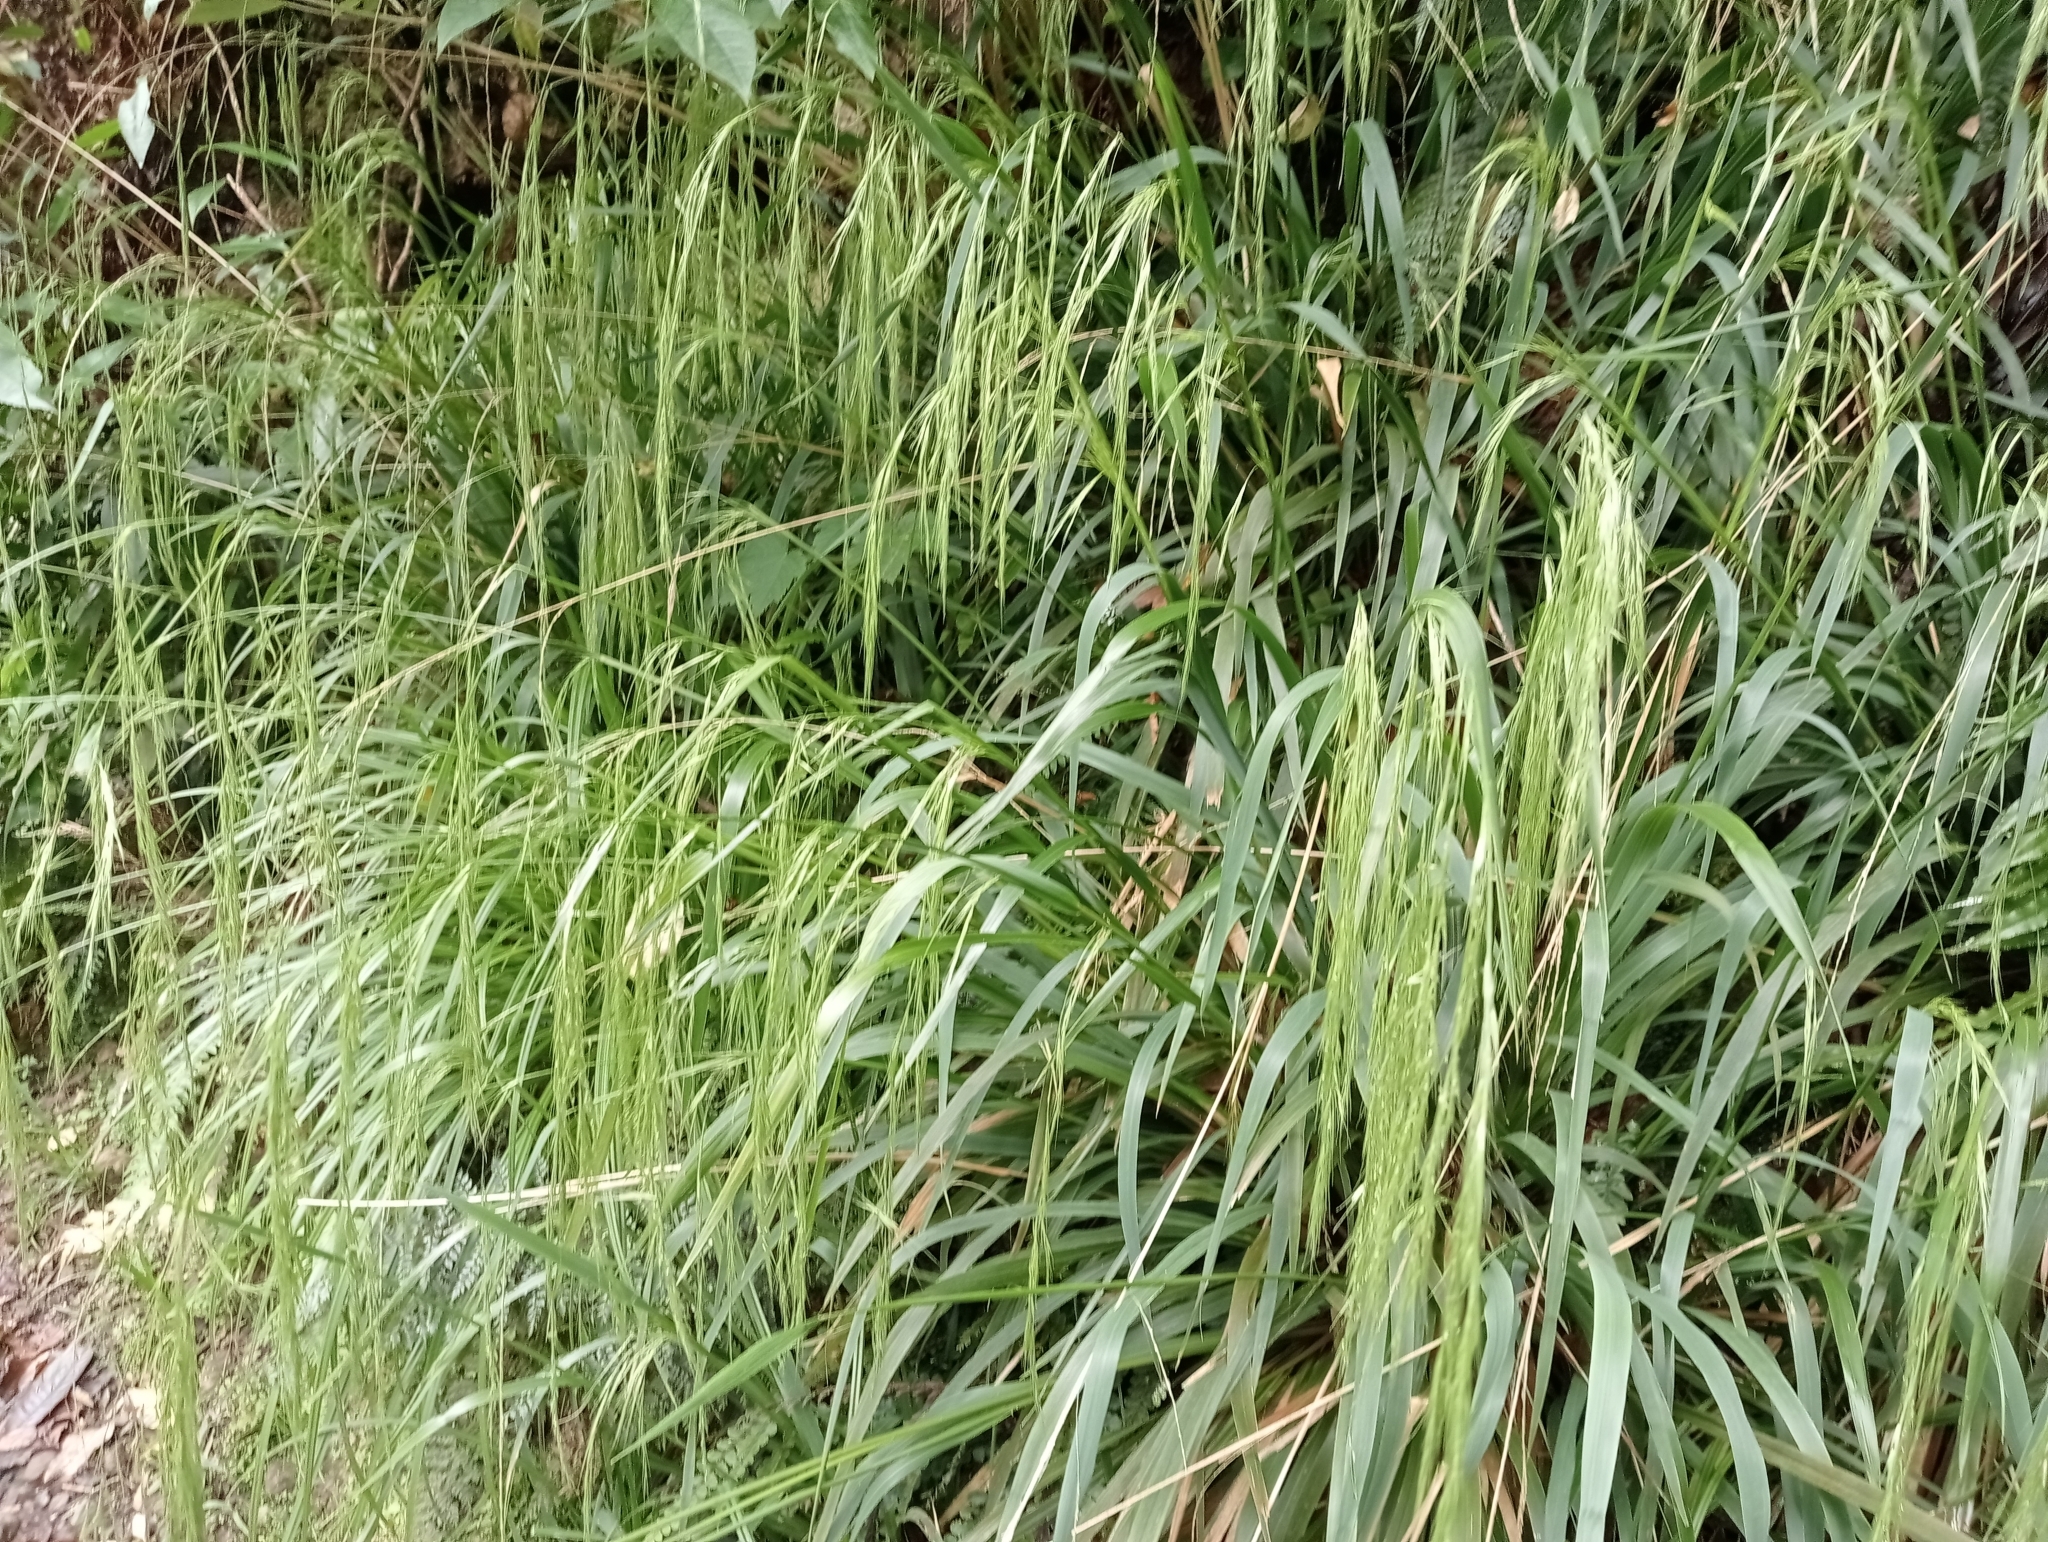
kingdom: Plantae
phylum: Tracheophyta
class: Liliopsida
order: Poales
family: Poaceae
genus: Ehrharta
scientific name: Ehrharta diplax
